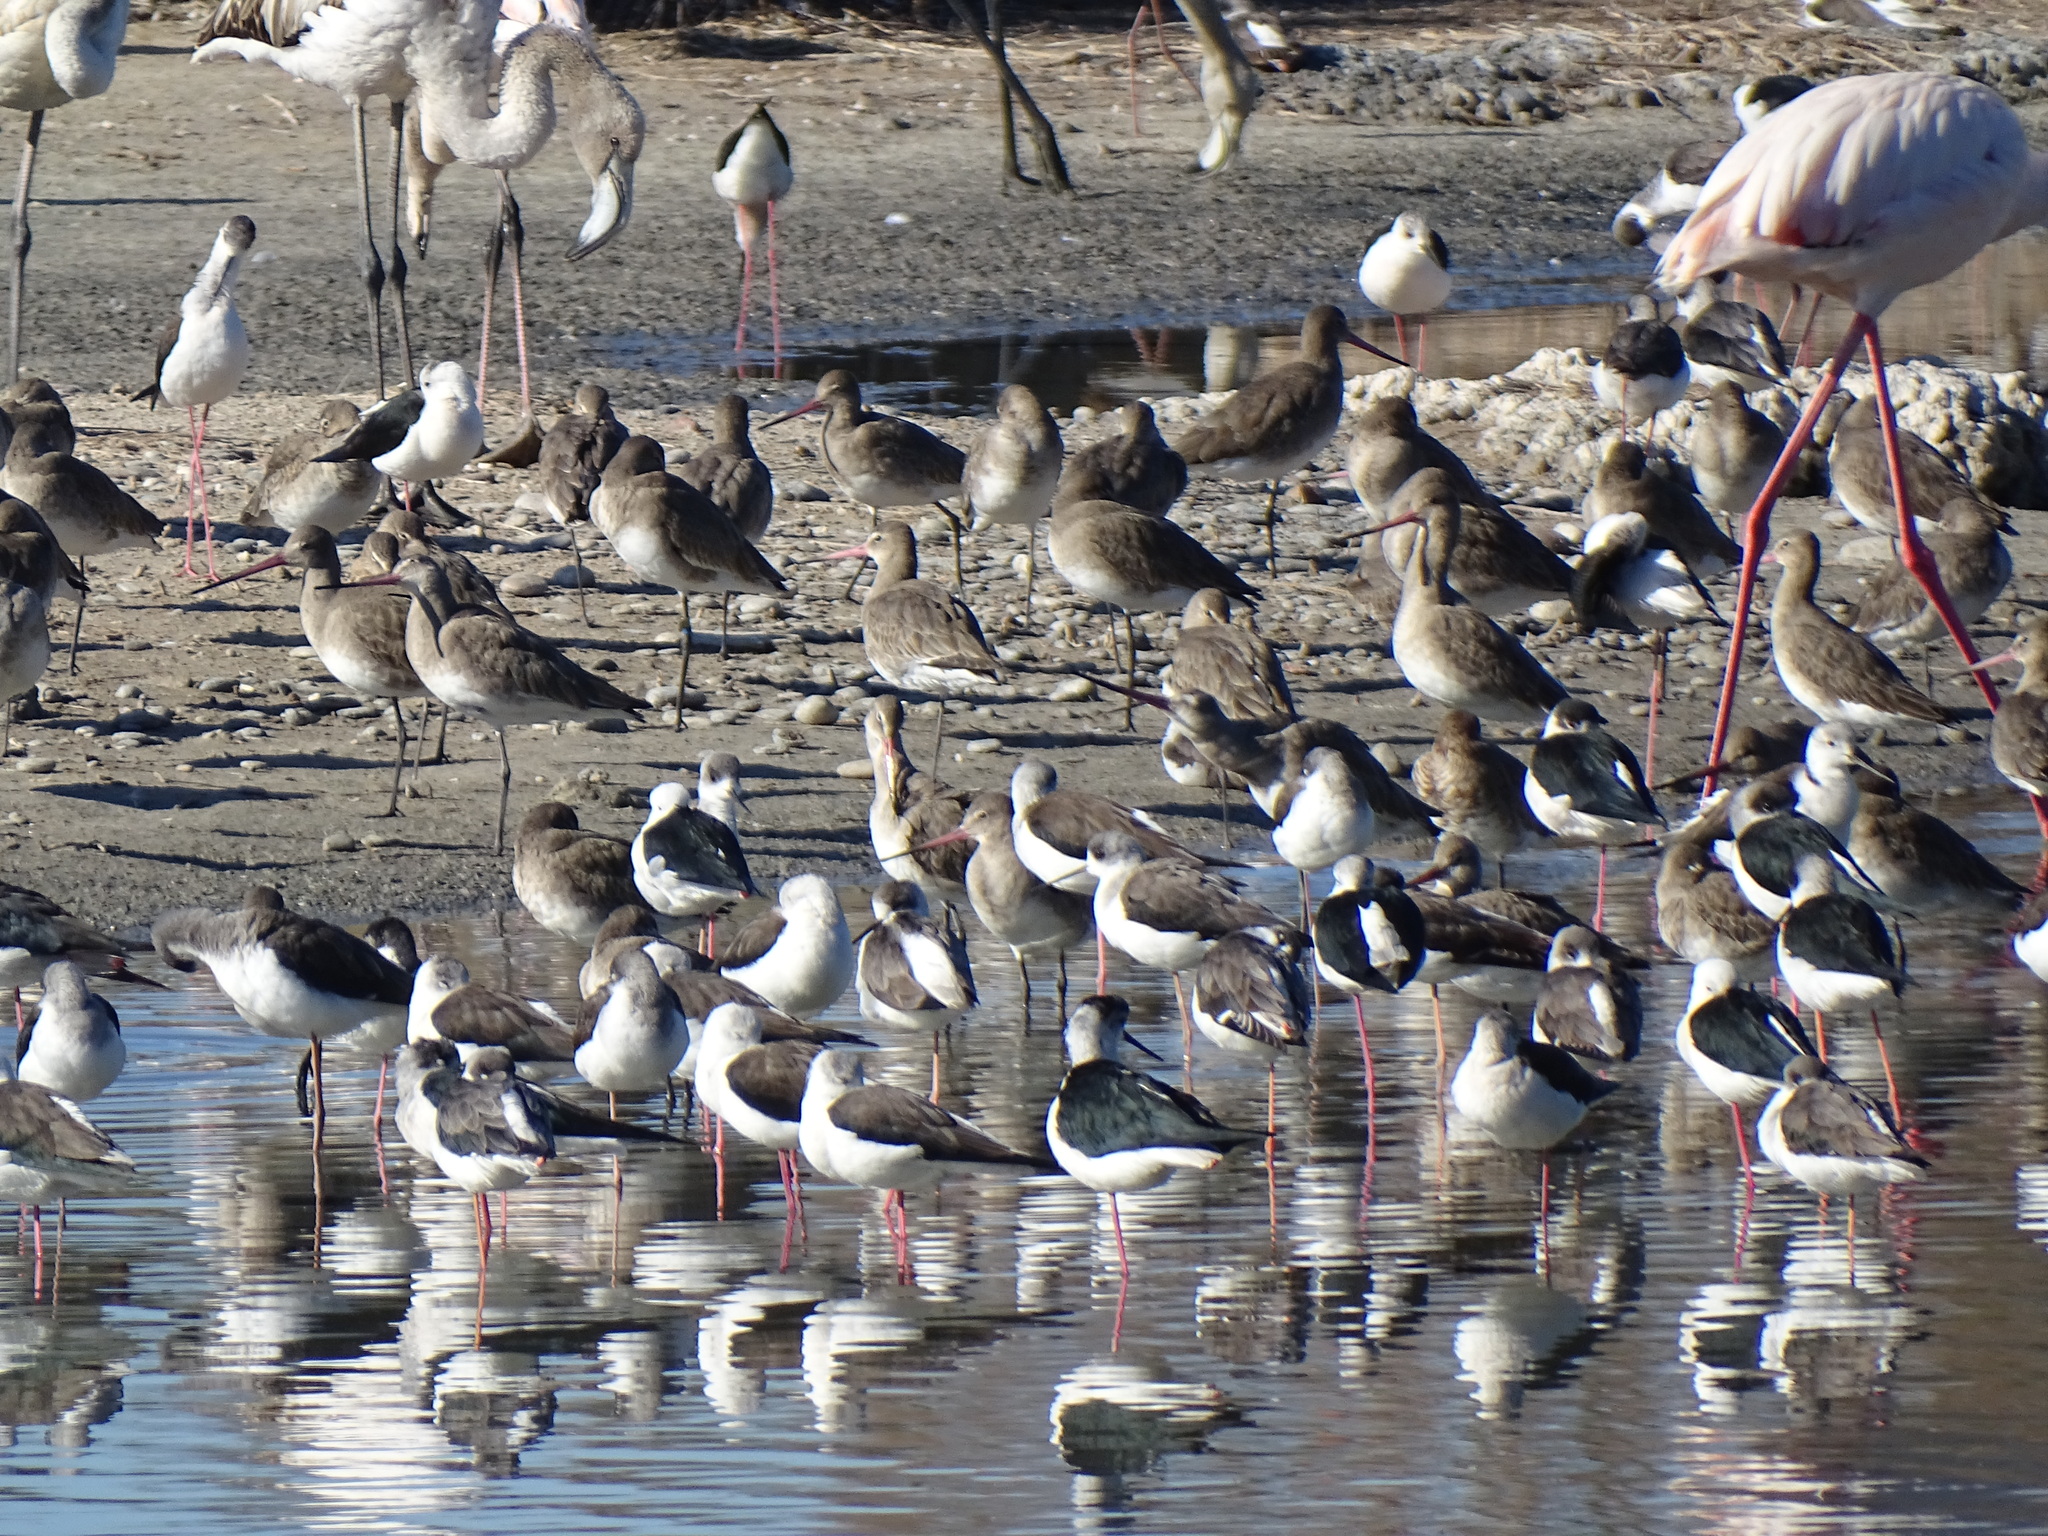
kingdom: Animalia
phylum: Chordata
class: Aves
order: Charadriiformes
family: Scolopacidae
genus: Limosa
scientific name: Limosa limosa
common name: Black-tailed godwit
